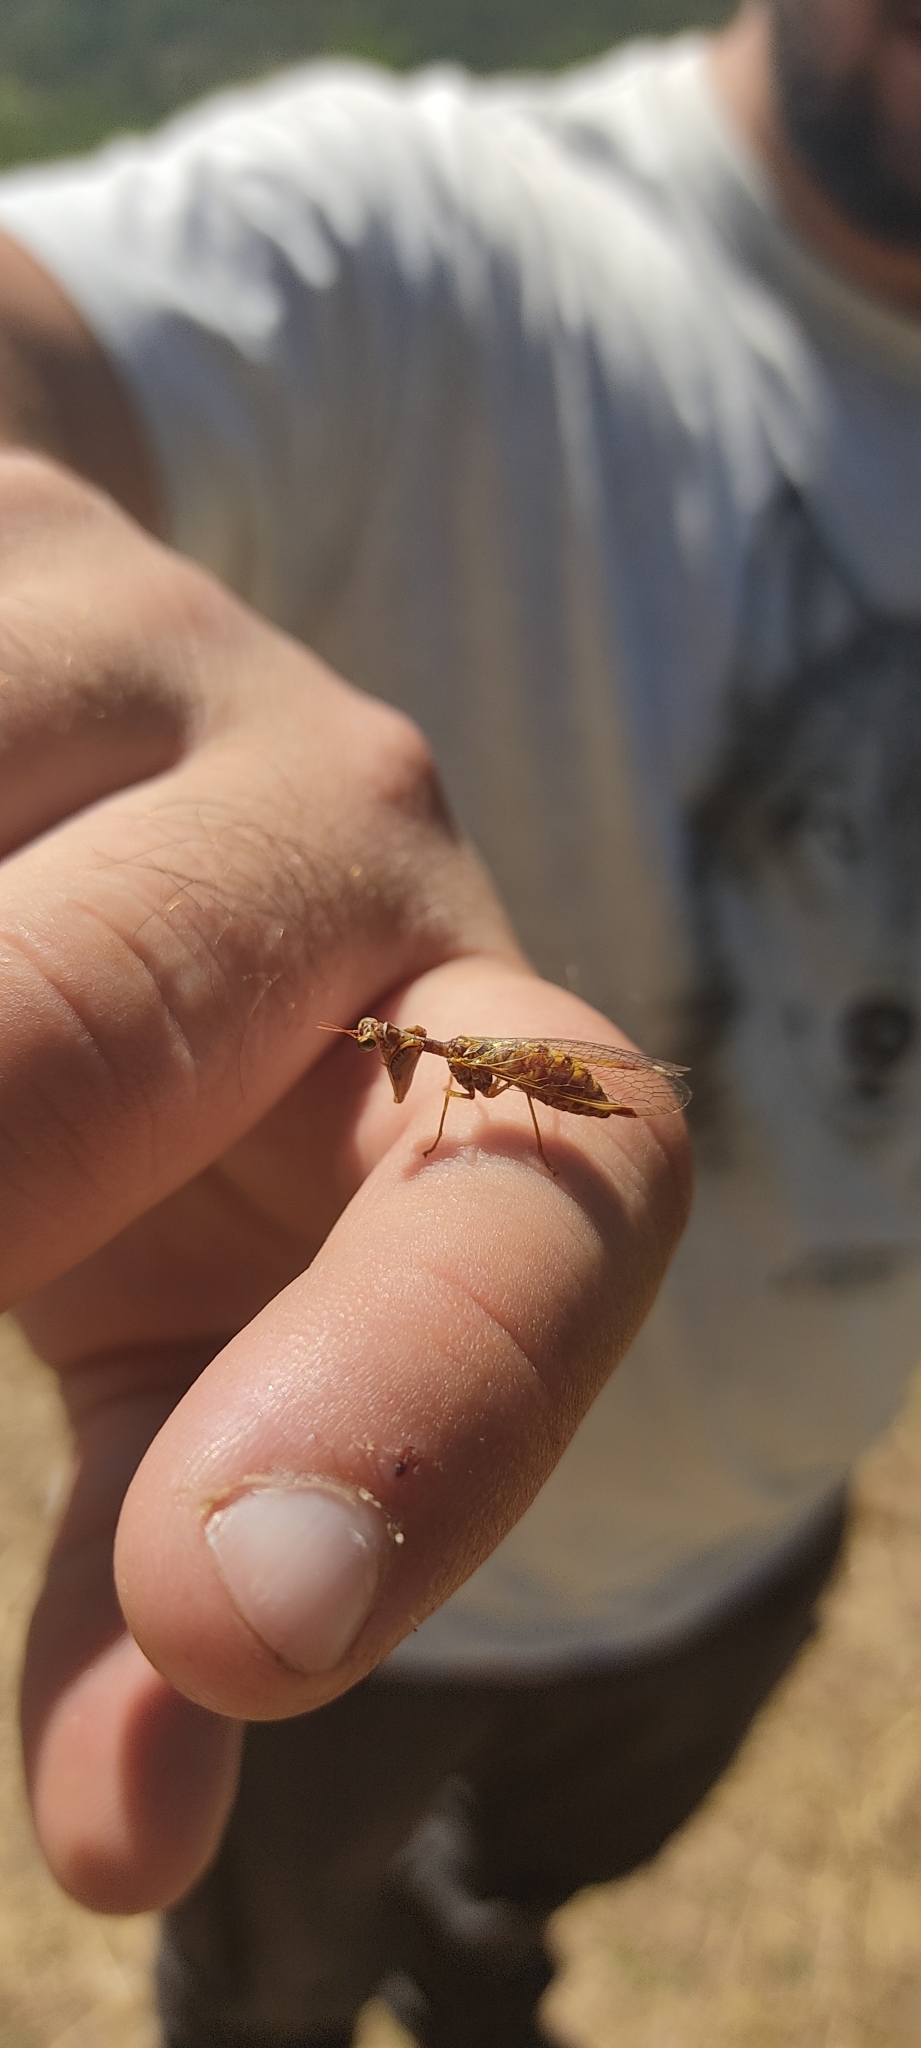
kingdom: Animalia
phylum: Arthropoda
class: Insecta
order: Neuroptera
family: Mantispidae
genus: Mantispa
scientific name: Mantispa styriaca
